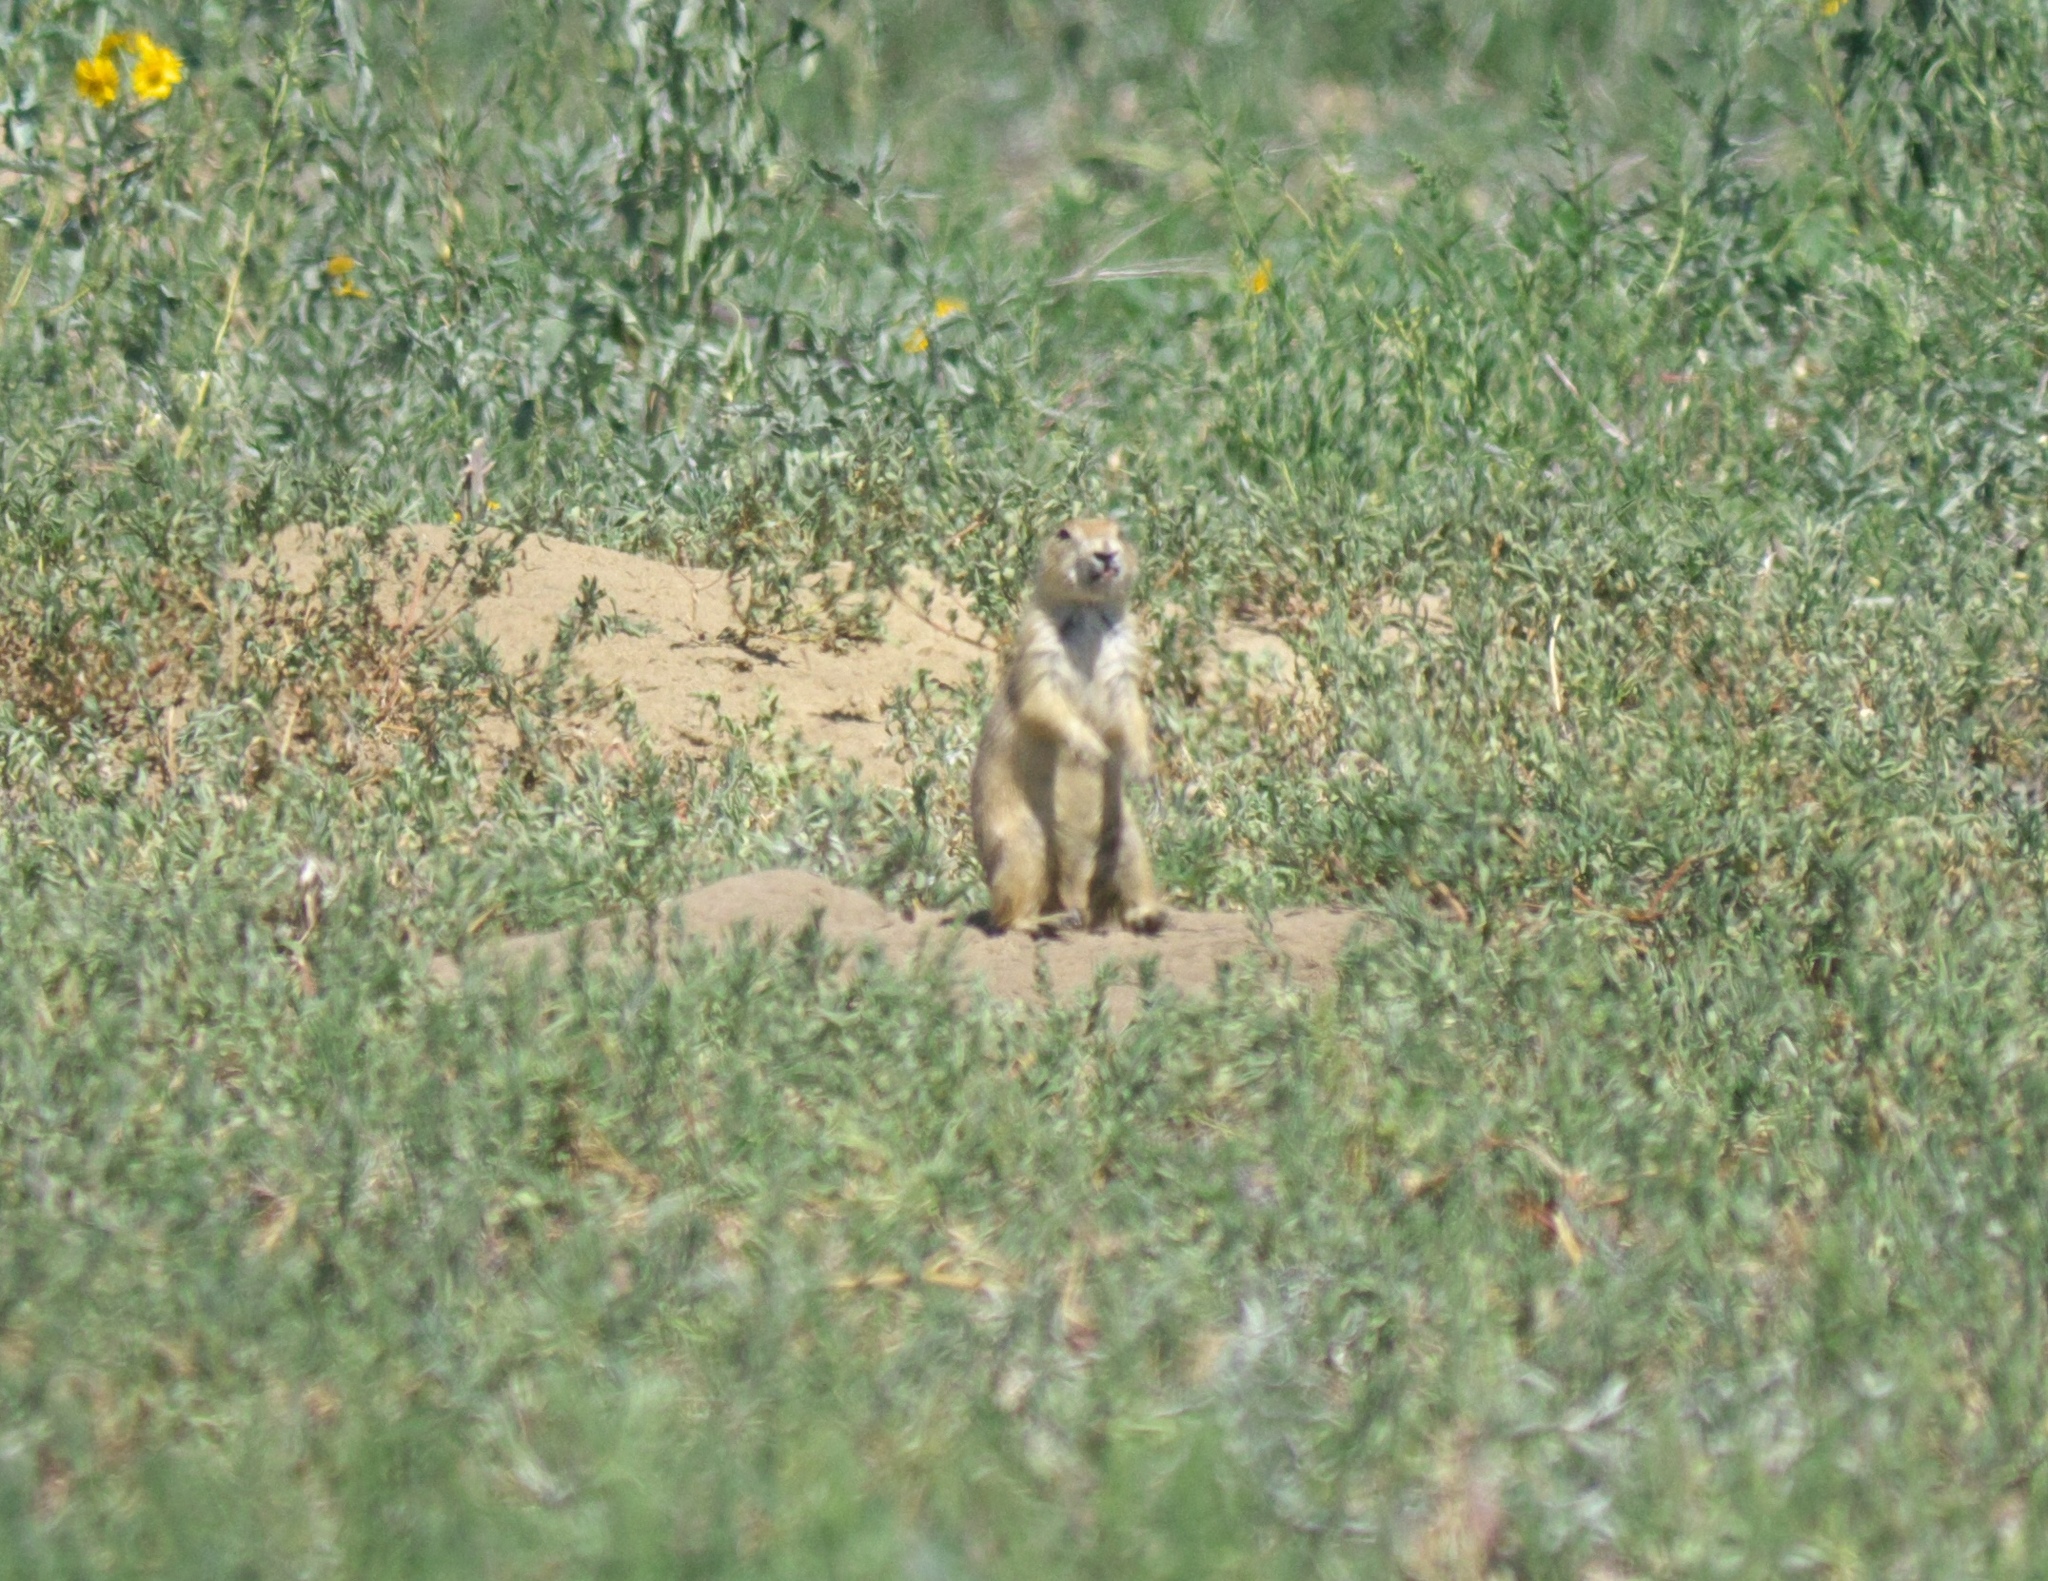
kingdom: Animalia
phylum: Chordata
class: Mammalia
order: Rodentia
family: Sciuridae
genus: Cynomys
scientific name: Cynomys ludovicianus
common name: Black-tailed prairie dog
